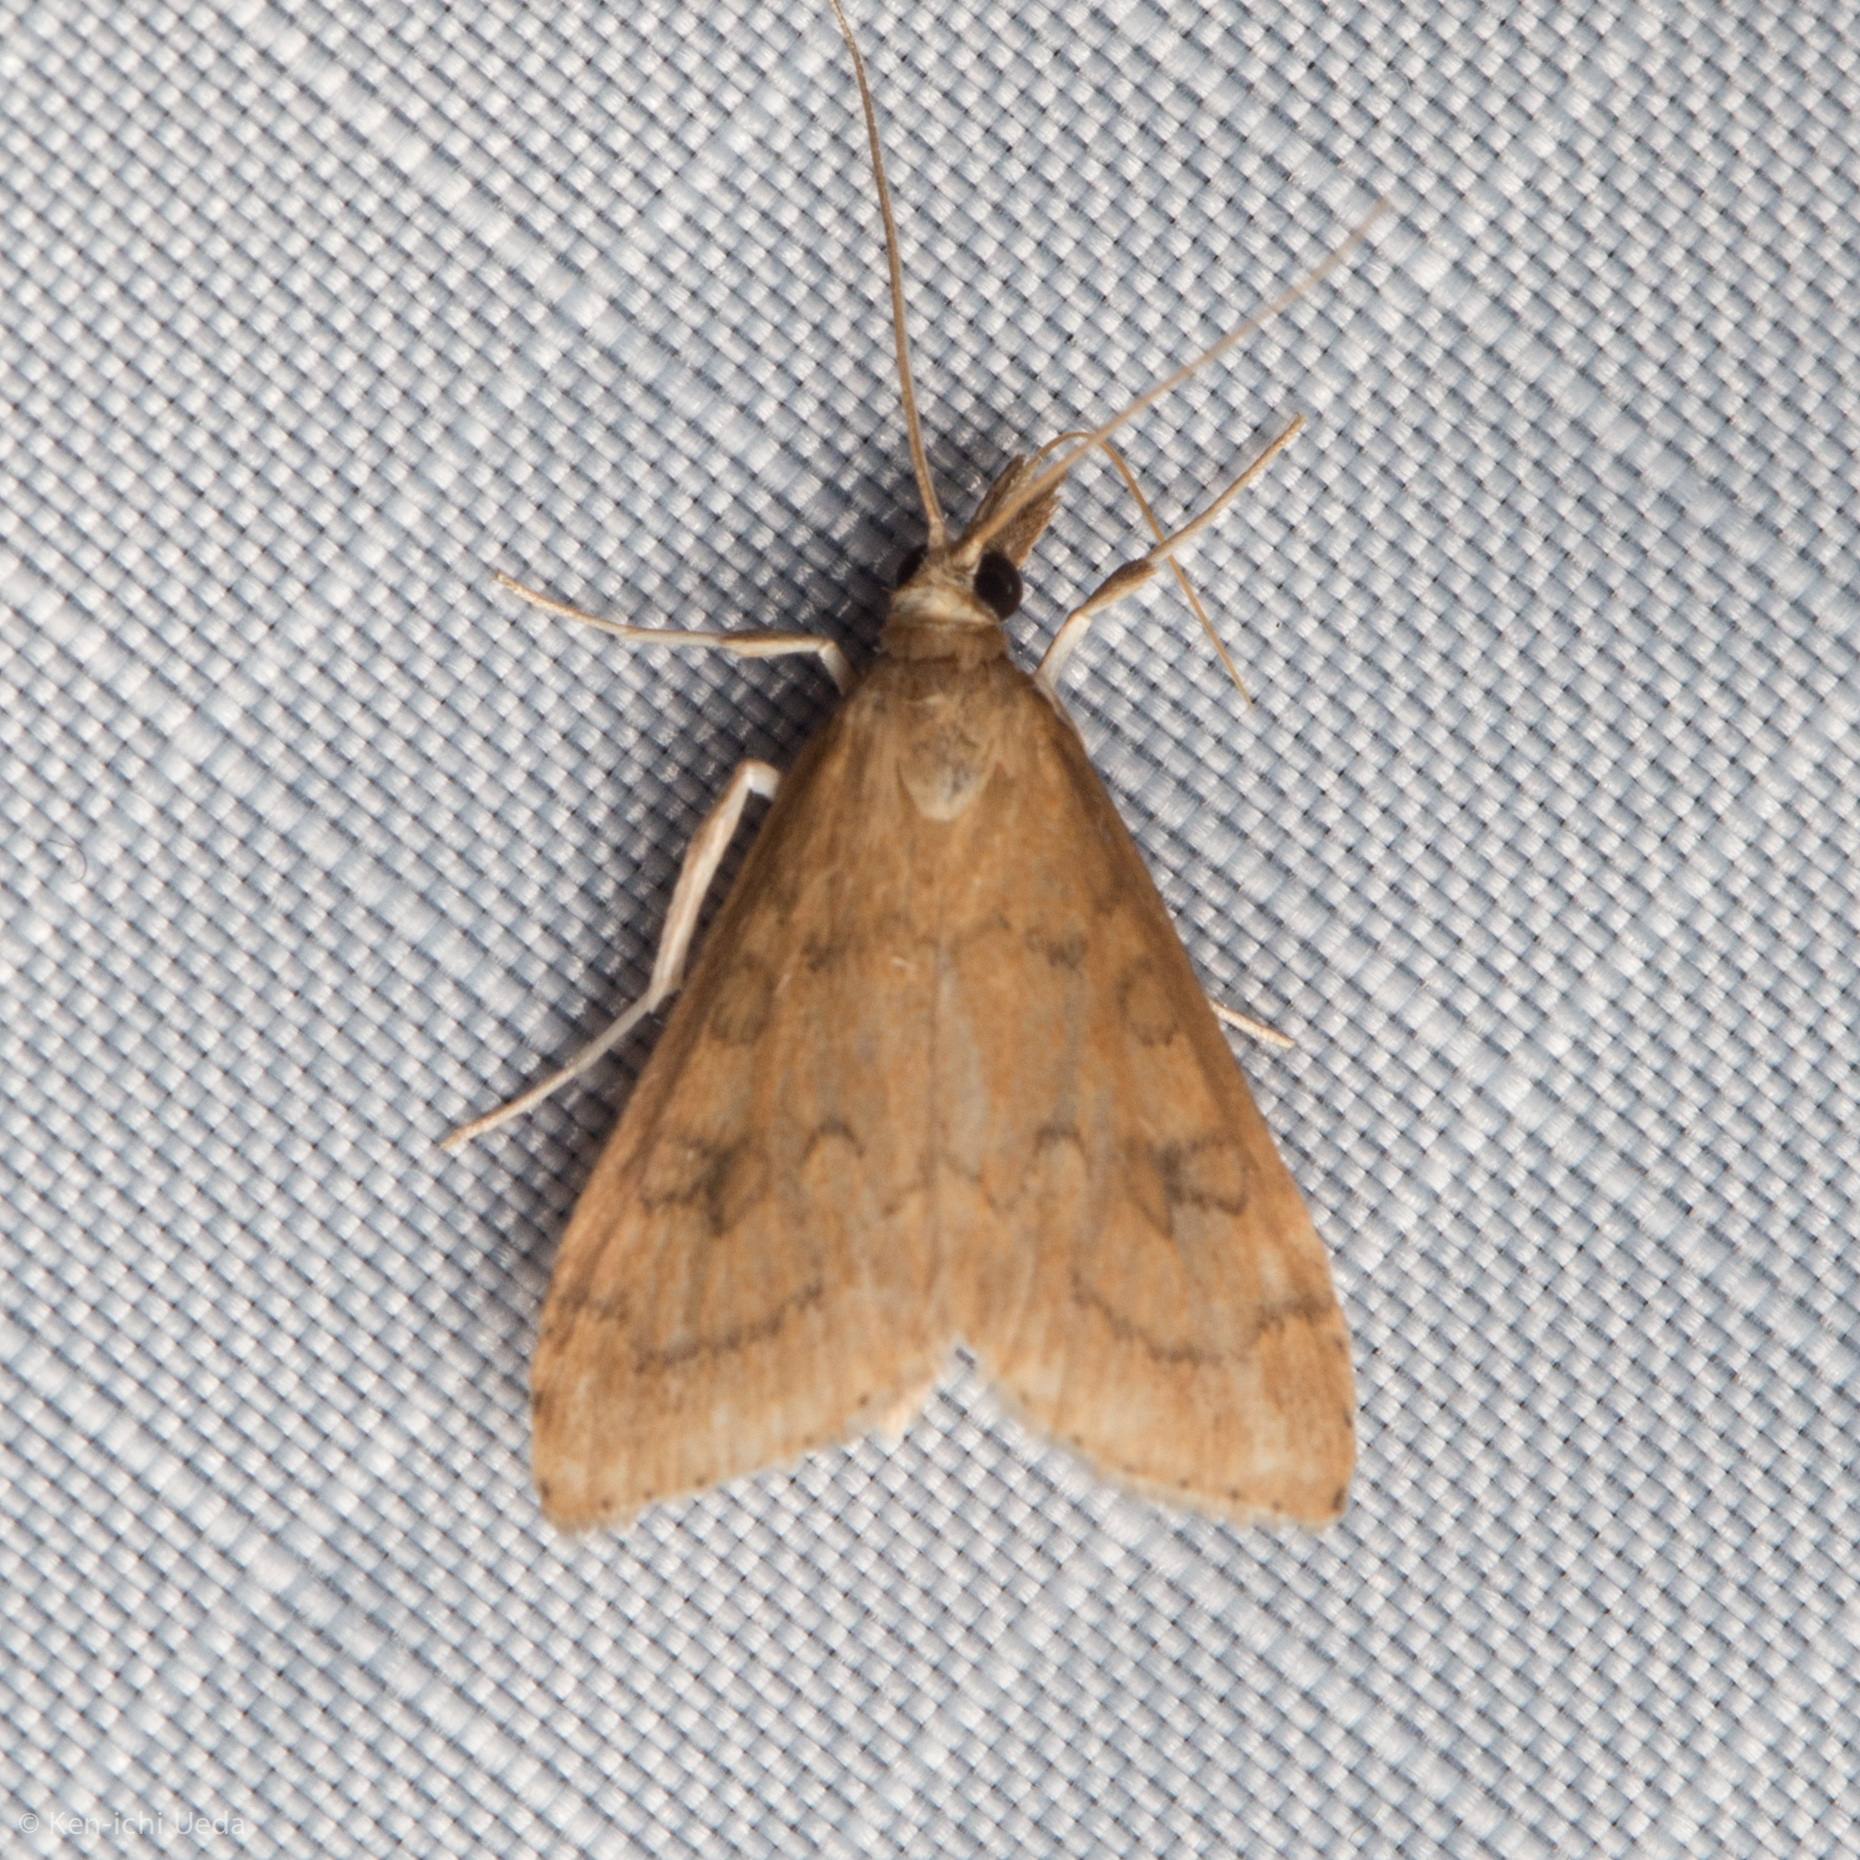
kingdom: Animalia
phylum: Arthropoda
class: Insecta
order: Lepidoptera
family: Crambidae
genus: Udea
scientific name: Udea rubigalis
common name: Celery leaftier moth
